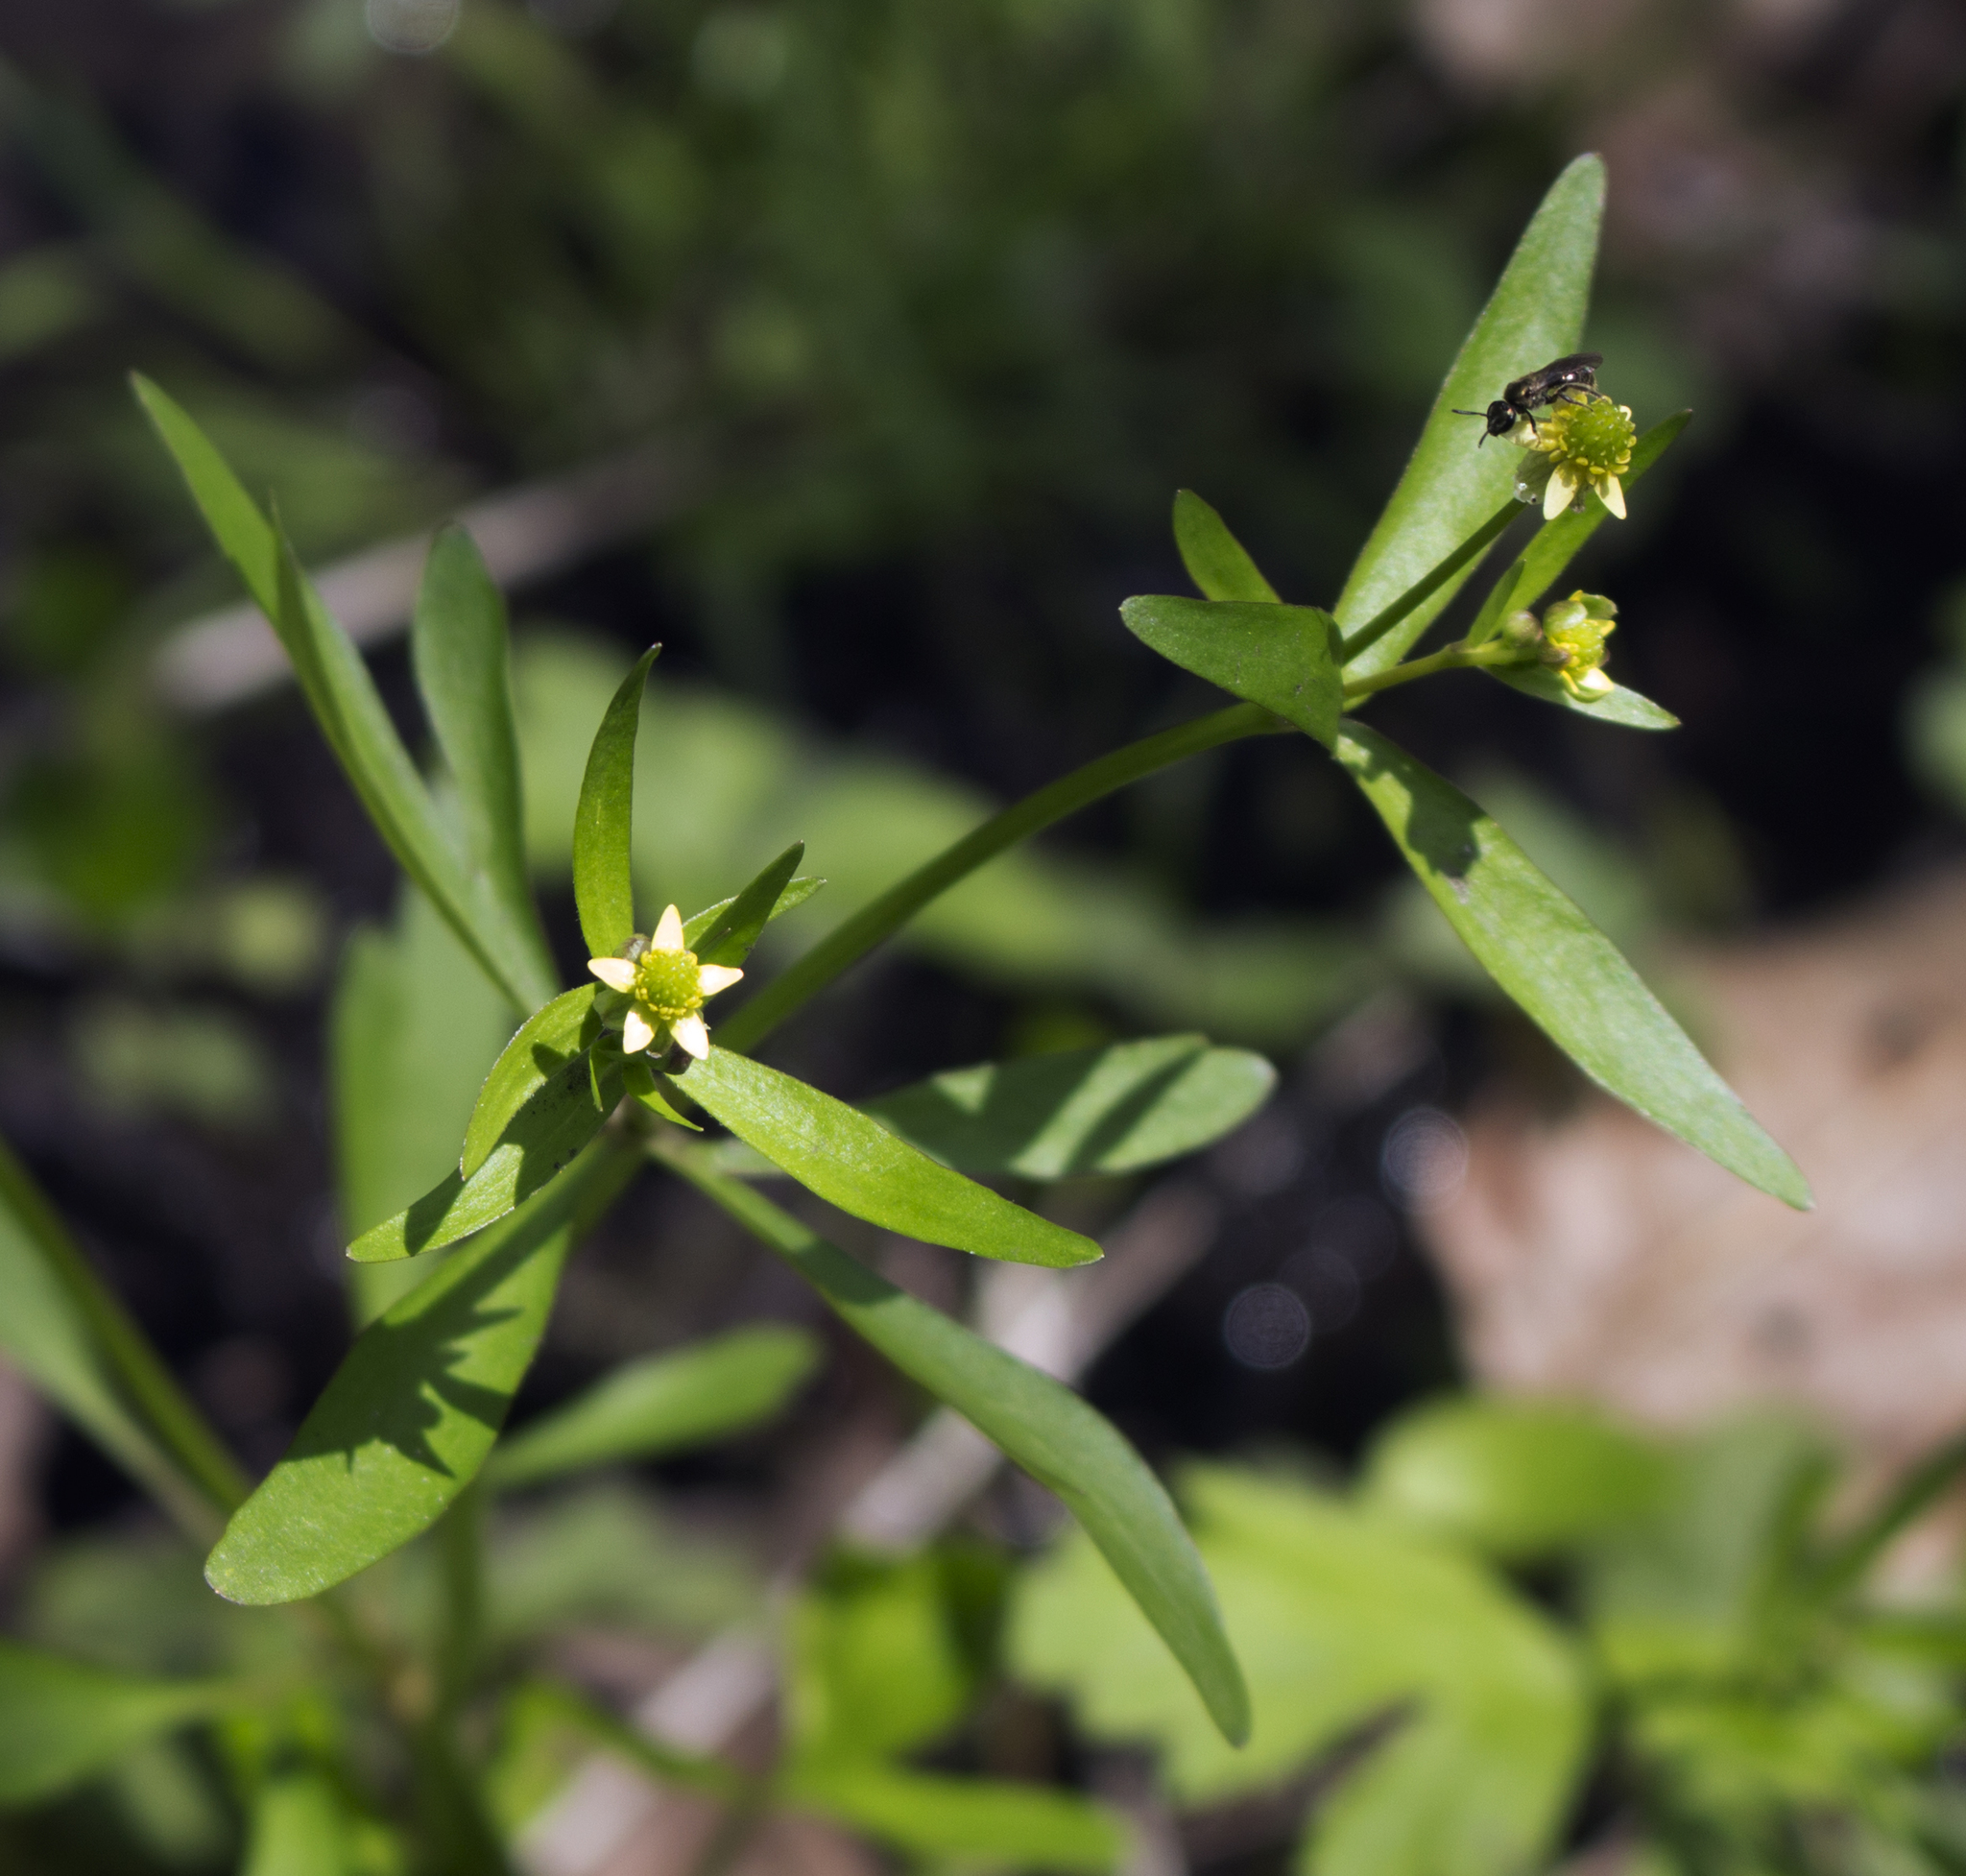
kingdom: Plantae
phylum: Tracheophyta
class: Magnoliopsida
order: Ranunculales
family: Ranunculaceae
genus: Ranunculus
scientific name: Ranunculus abortivus
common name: Early wood buttercup
